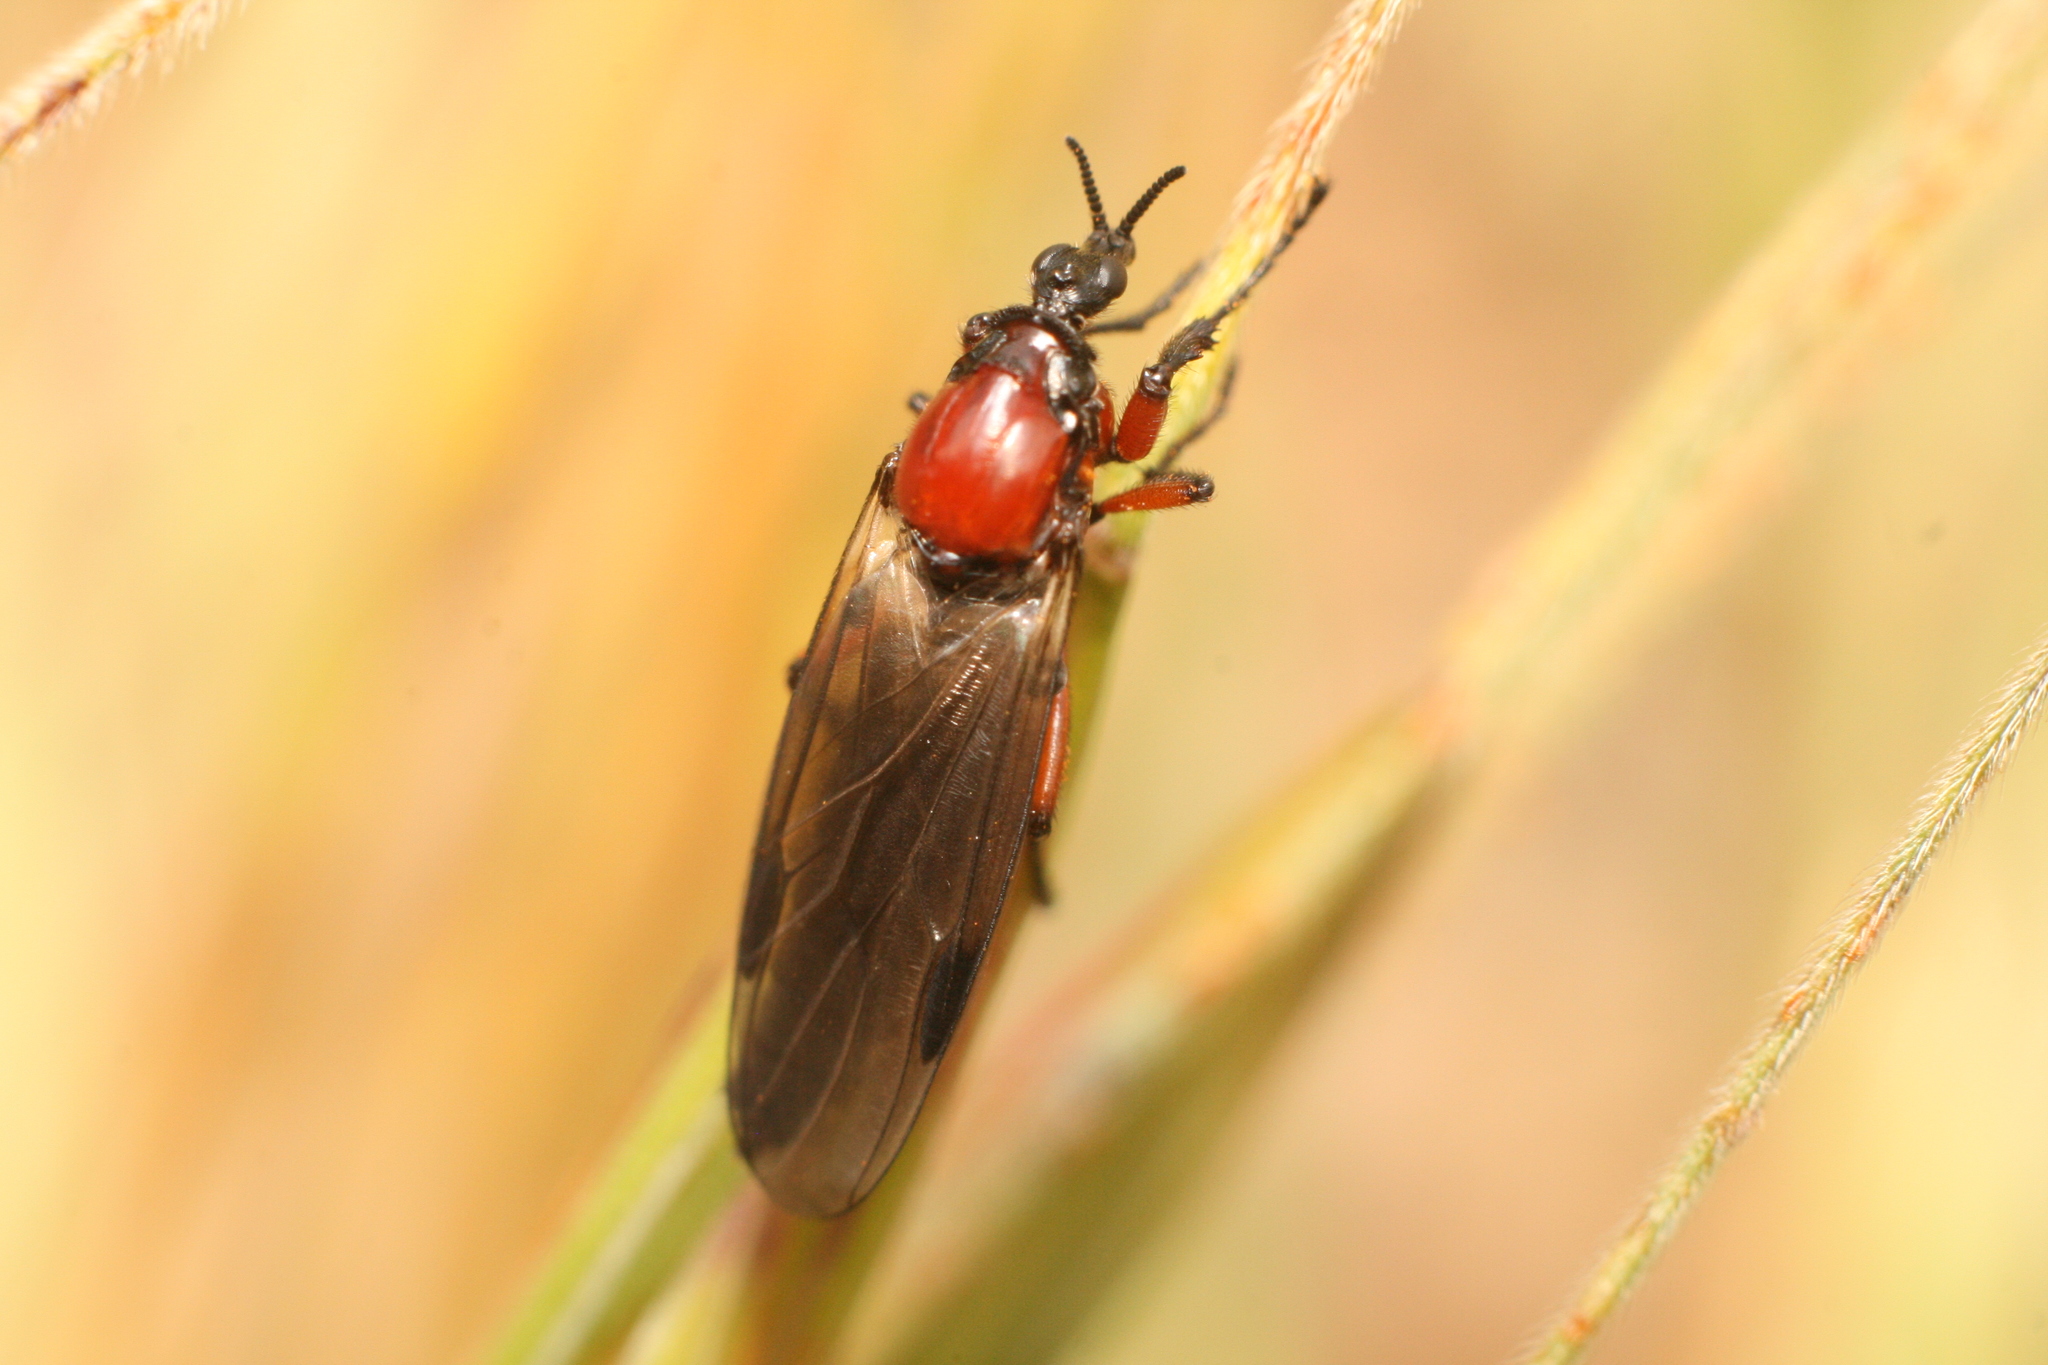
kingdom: Animalia
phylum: Arthropoda
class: Insecta
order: Diptera
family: Bibionidae
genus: Dilophus
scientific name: Dilophus nigrostigma
